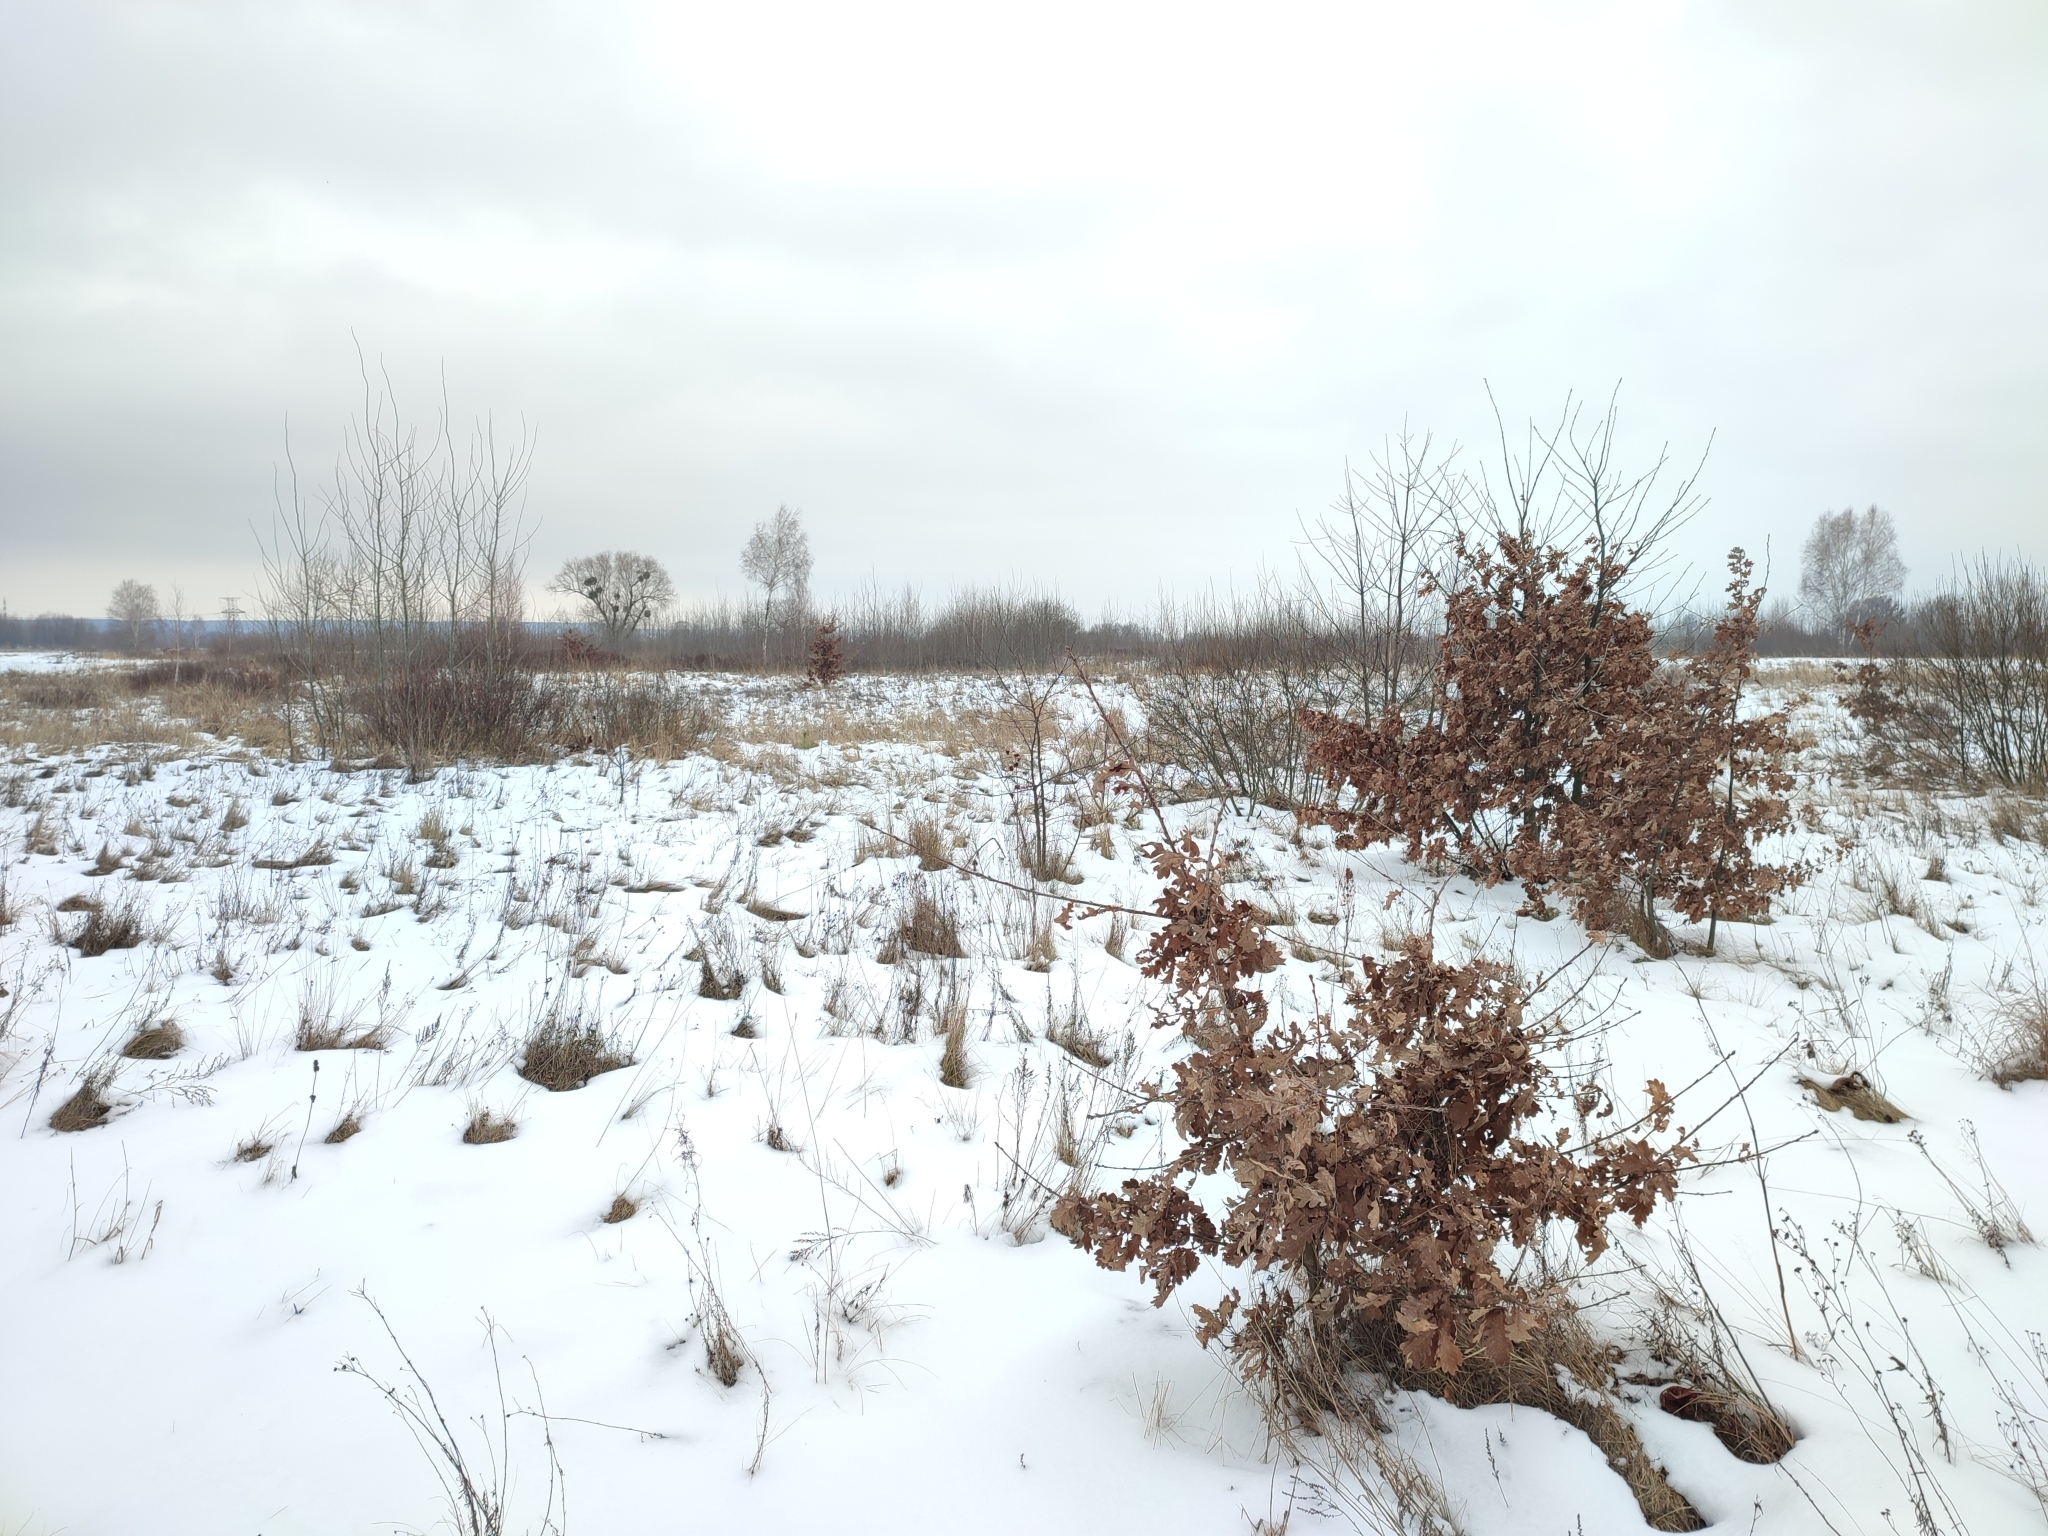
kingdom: Plantae
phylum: Tracheophyta
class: Magnoliopsida
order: Fagales
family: Fagaceae
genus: Quercus
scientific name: Quercus robur
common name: Pedunculate oak
